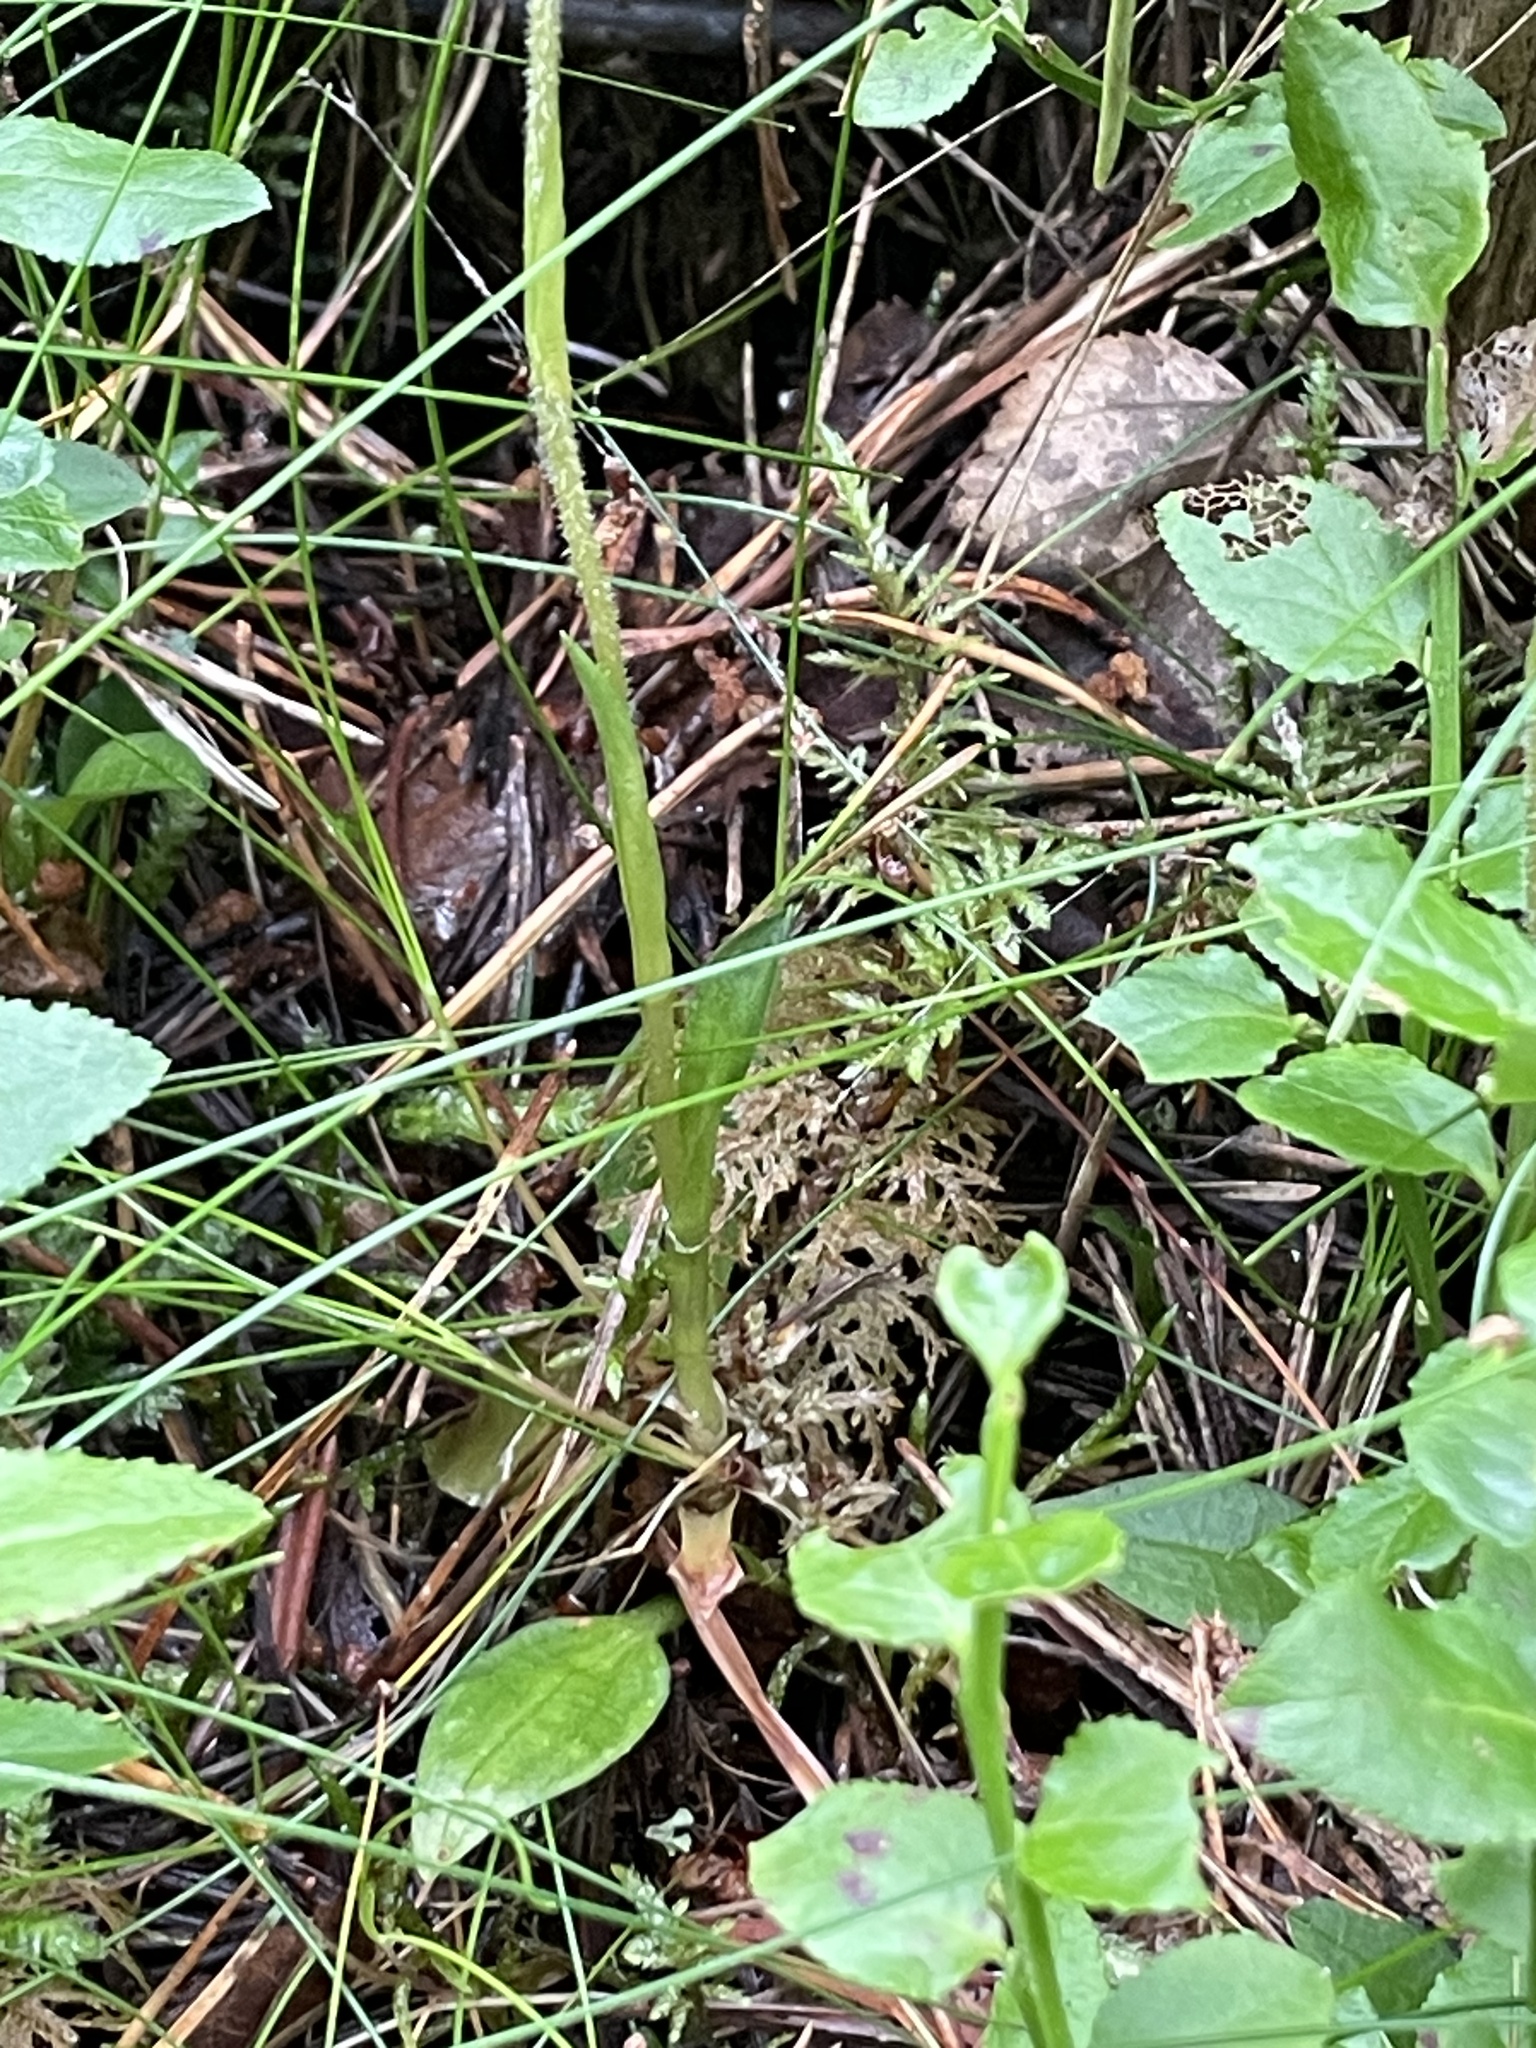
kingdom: Plantae
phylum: Tracheophyta
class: Liliopsida
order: Asparagales
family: Orchidaceae
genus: Goodyera
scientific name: Goodyera repens
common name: Creeping lady's-tresses
